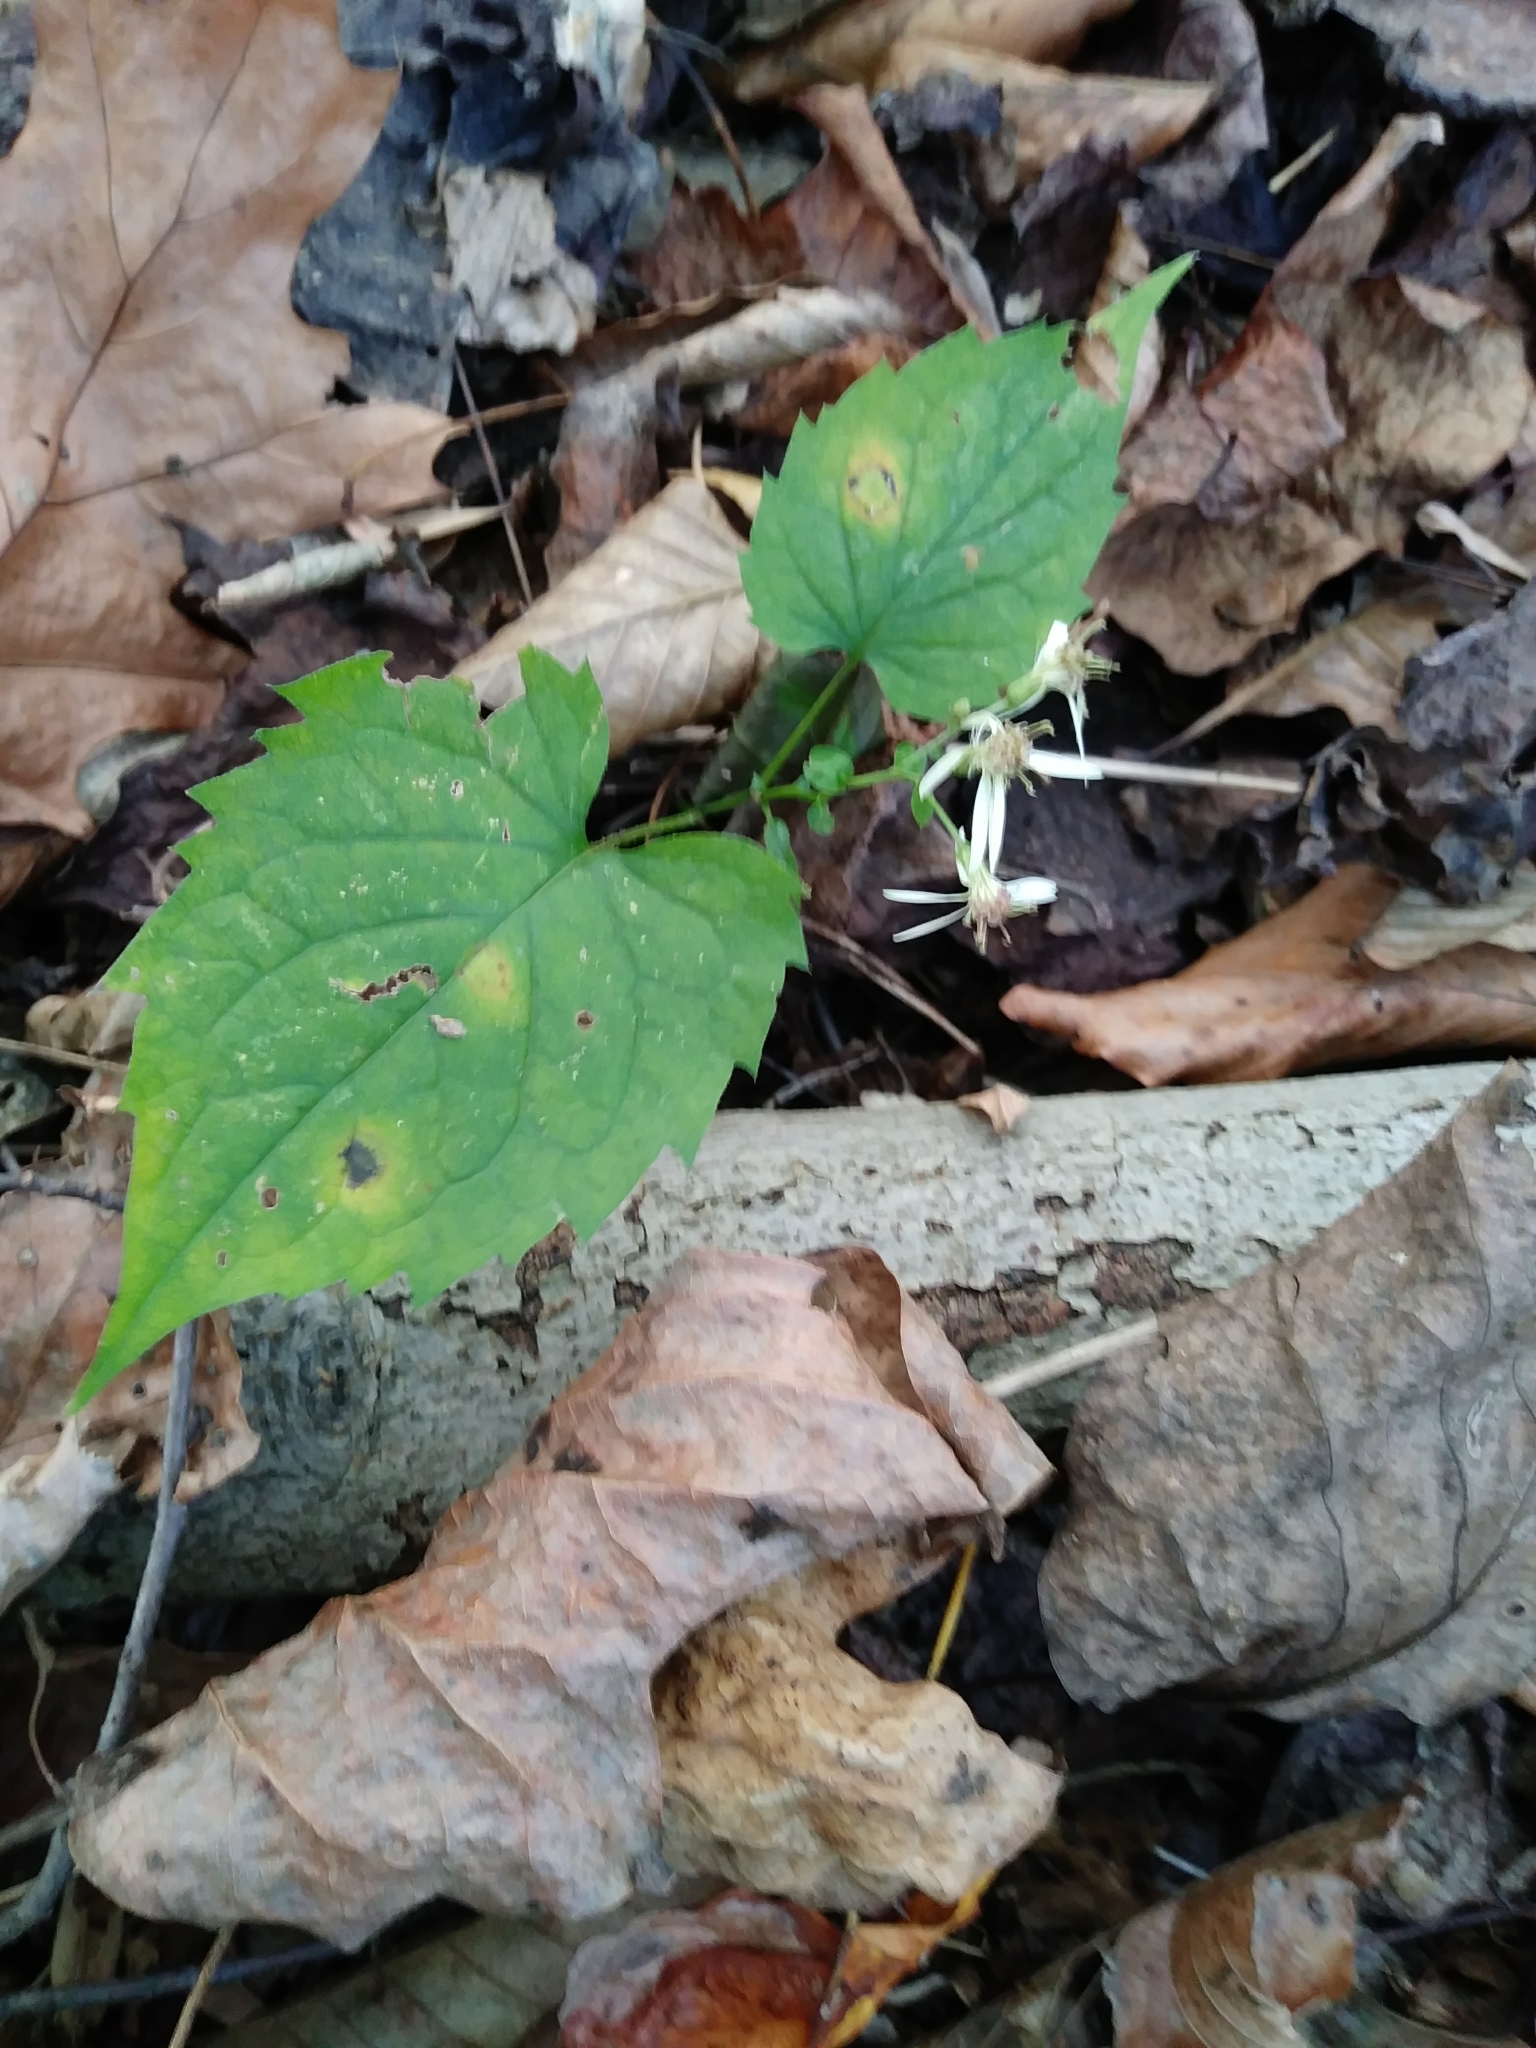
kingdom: Plantae
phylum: Tracheophyta
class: Magnoliopsida
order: Asterales
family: Asteraceae
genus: Eurybia
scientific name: Eurybia divaricata
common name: White wood aster
